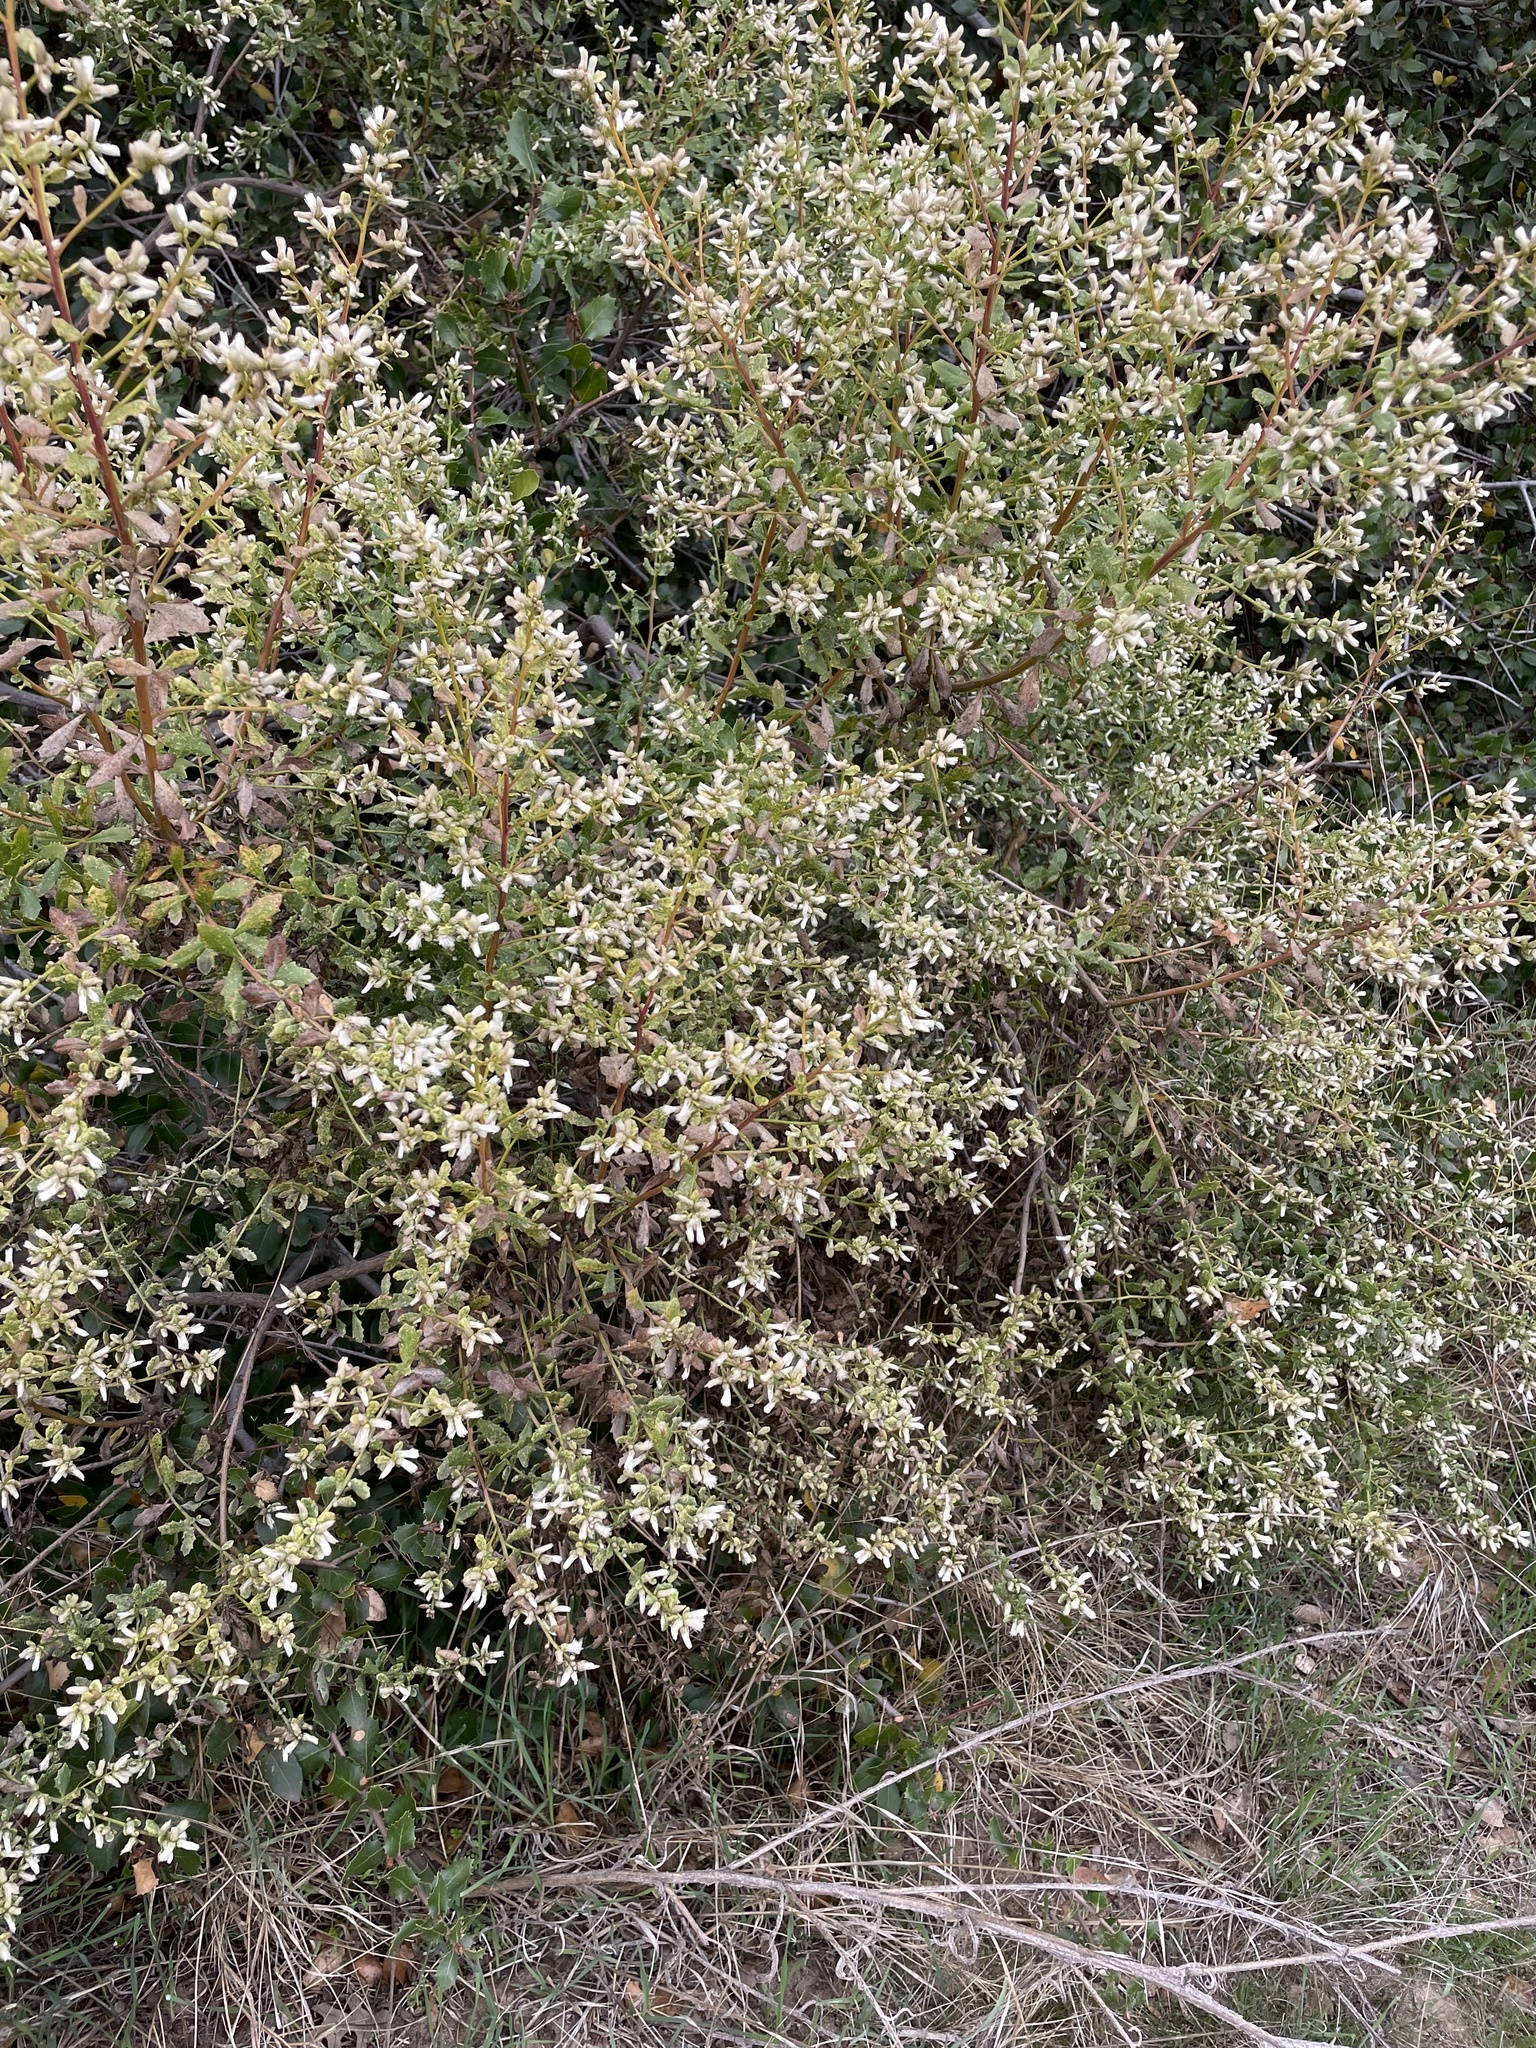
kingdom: Plantae
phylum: Tracheophyta
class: Magnoliopsida
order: Asterales
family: Asteraceae
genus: Baccharis
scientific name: Baccharis pilularis
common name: Coyotebrush
